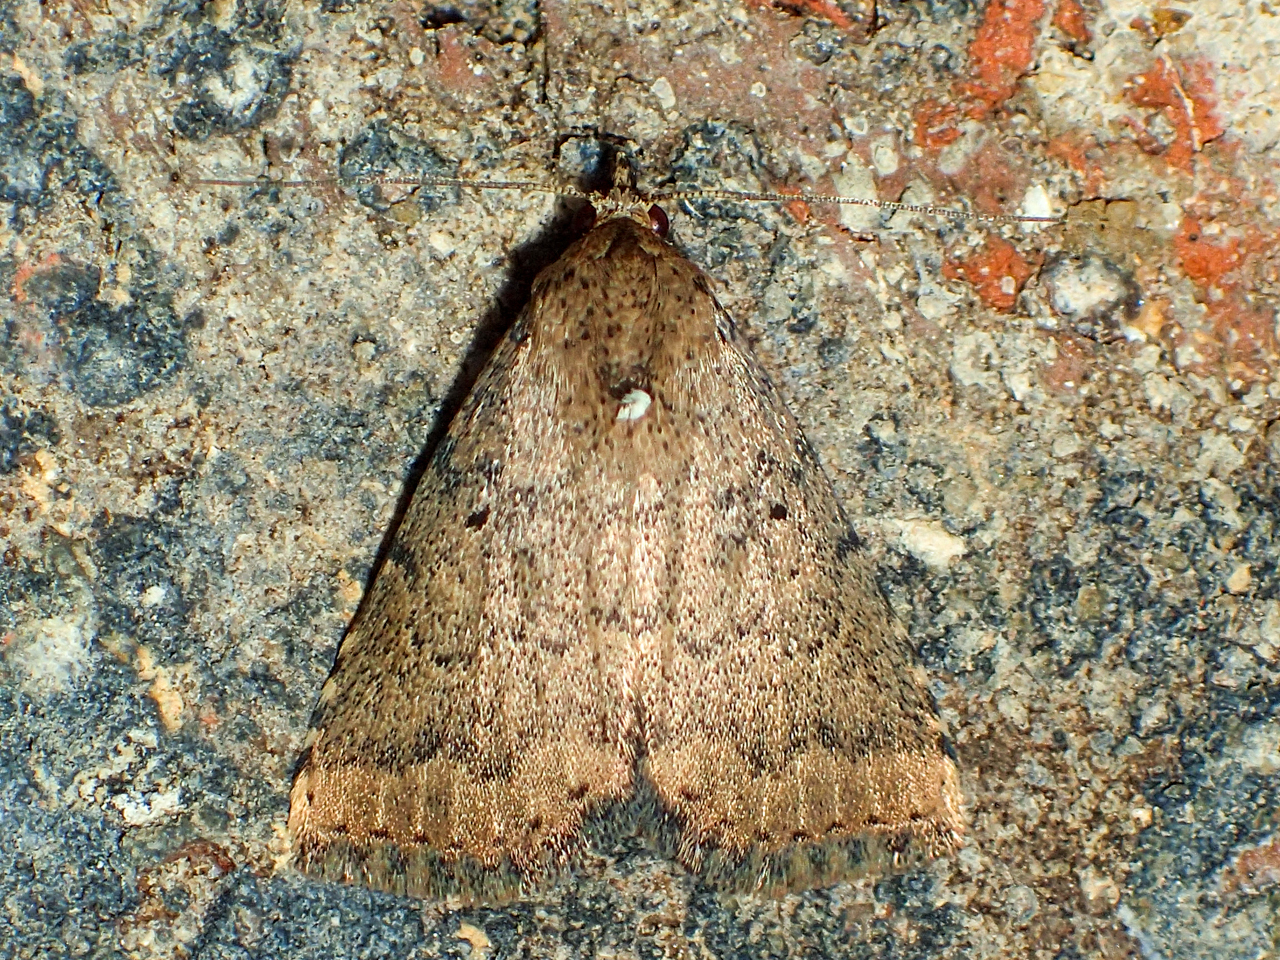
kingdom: Animalia
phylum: Arthropoda
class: Insecta
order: Lepidoptera
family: Erebidae
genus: Arugisa
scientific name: Arugisa lutea
